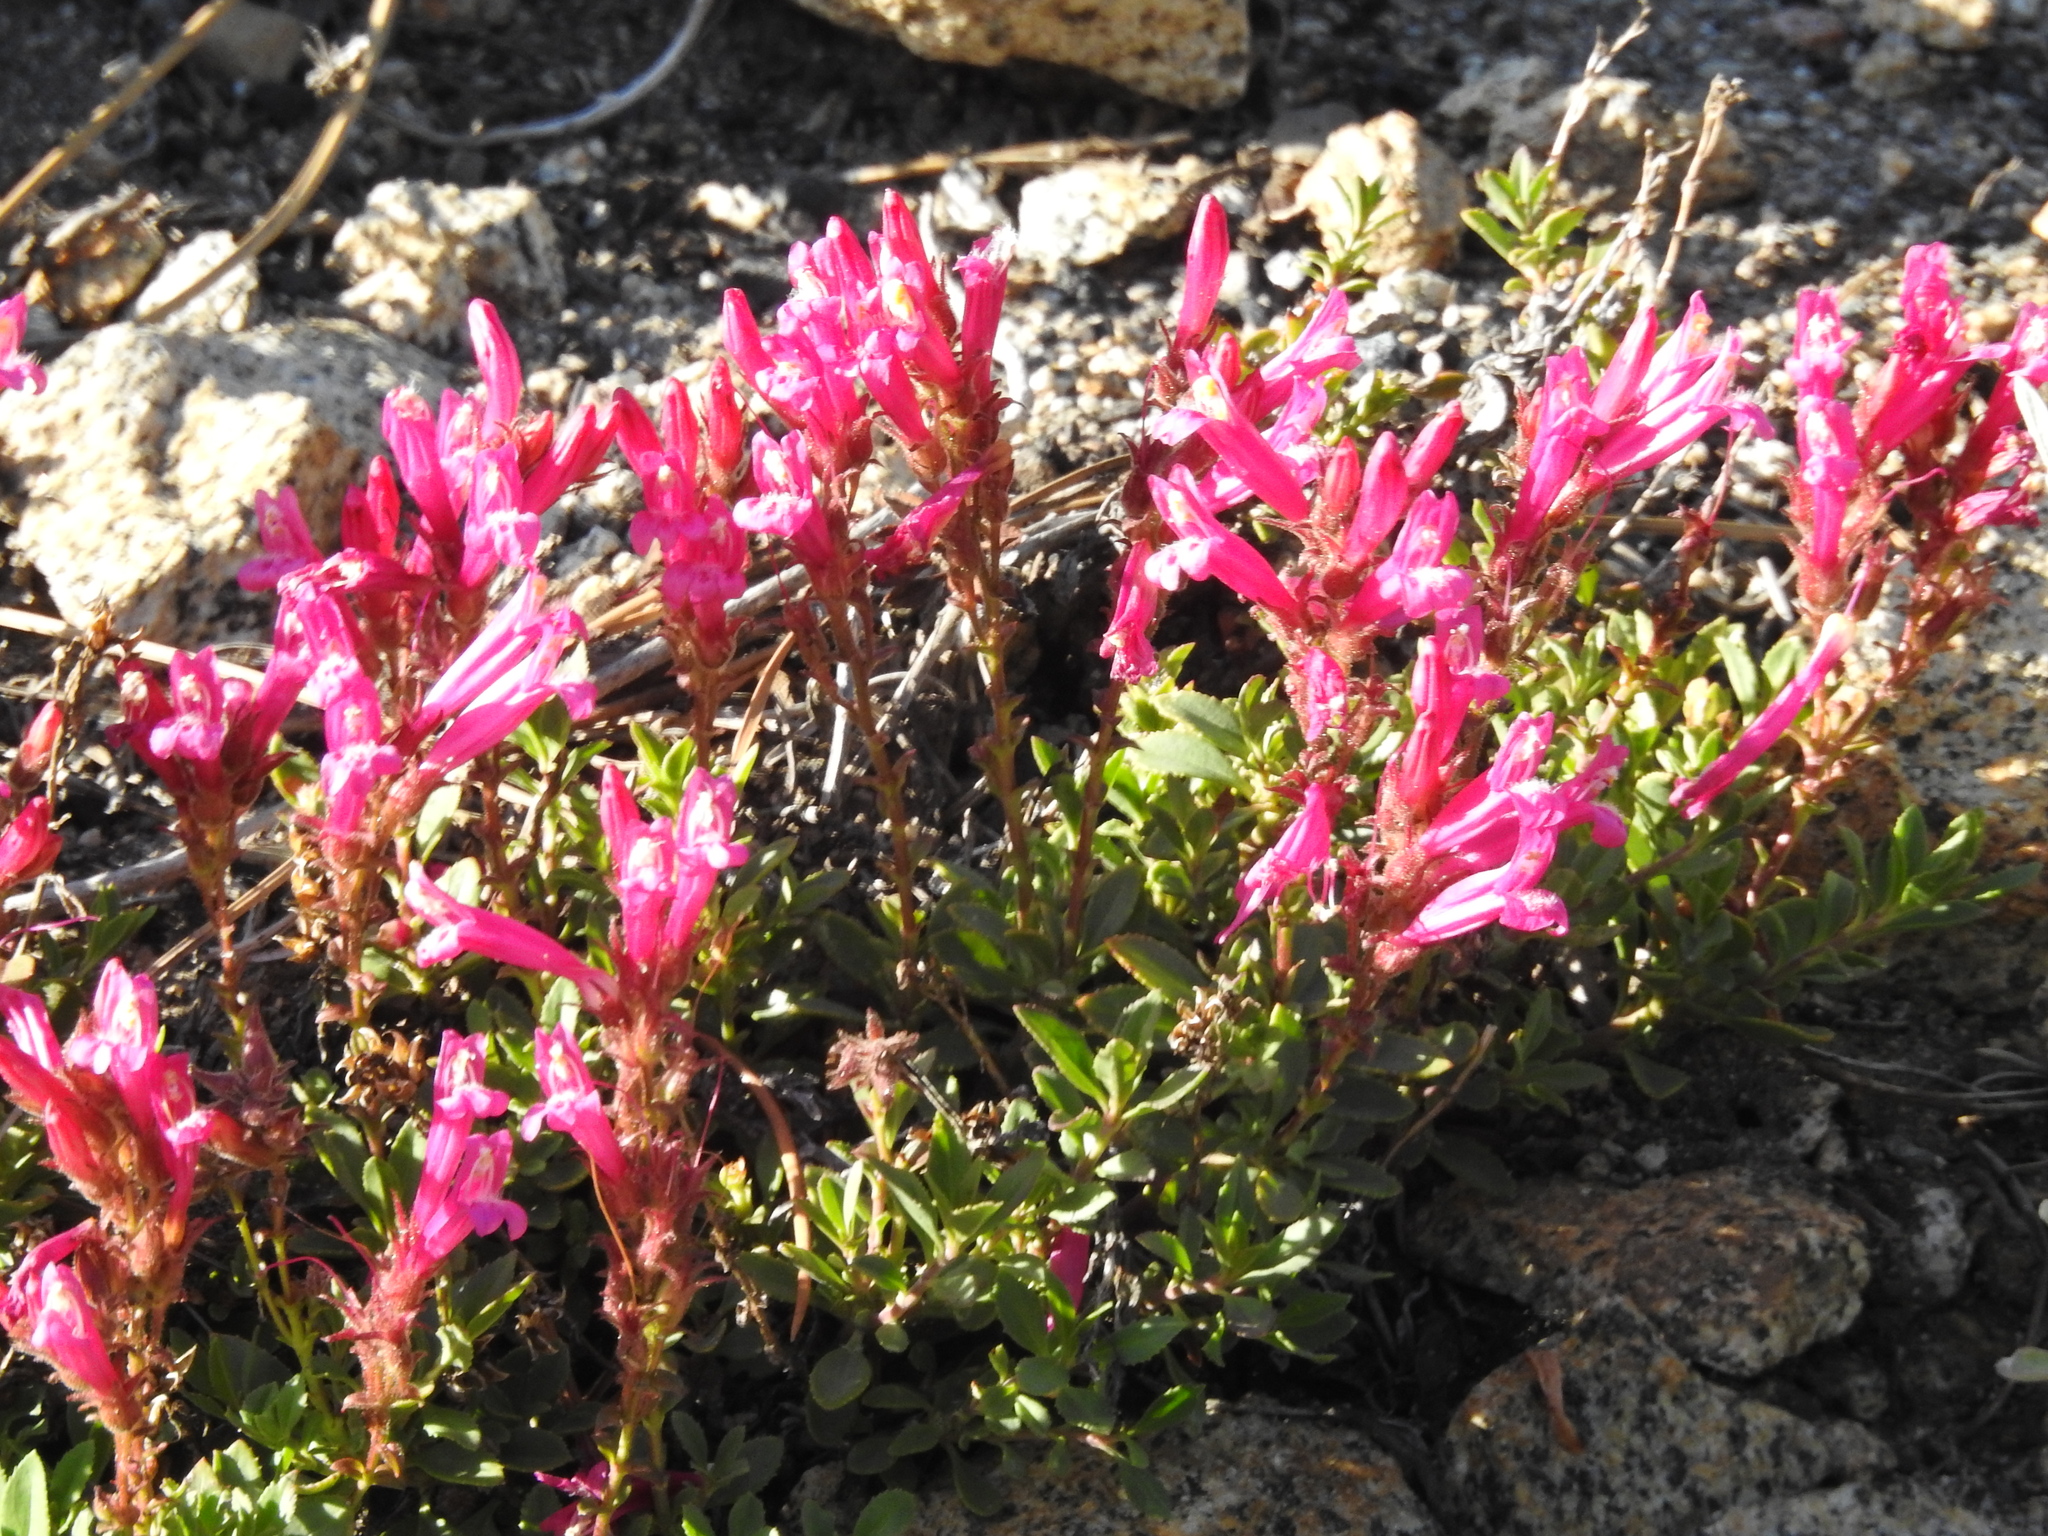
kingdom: Plantae
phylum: Tracheophyta
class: Magnoliopsida
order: Lamiales
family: Plantaginaceae
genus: Penstemon
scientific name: Penstemon newberryi
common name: Mountain-pride
